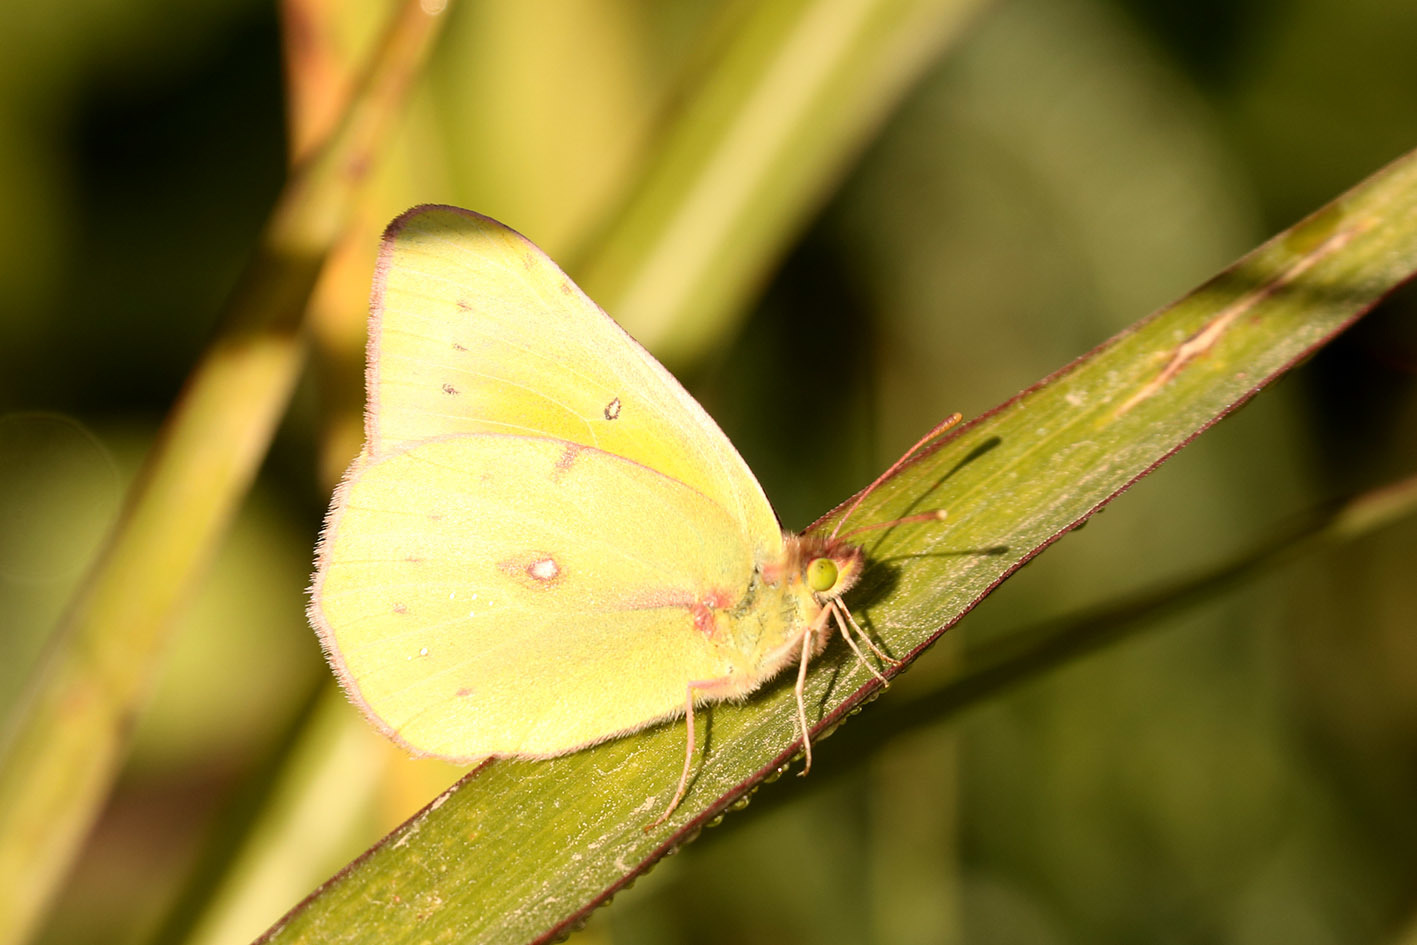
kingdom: Animalia
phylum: Arthropoda
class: Insecta
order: Lepidoptera
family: Pieridae
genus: Colias
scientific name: Colias lesbia
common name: Lesbia clouded yellow
